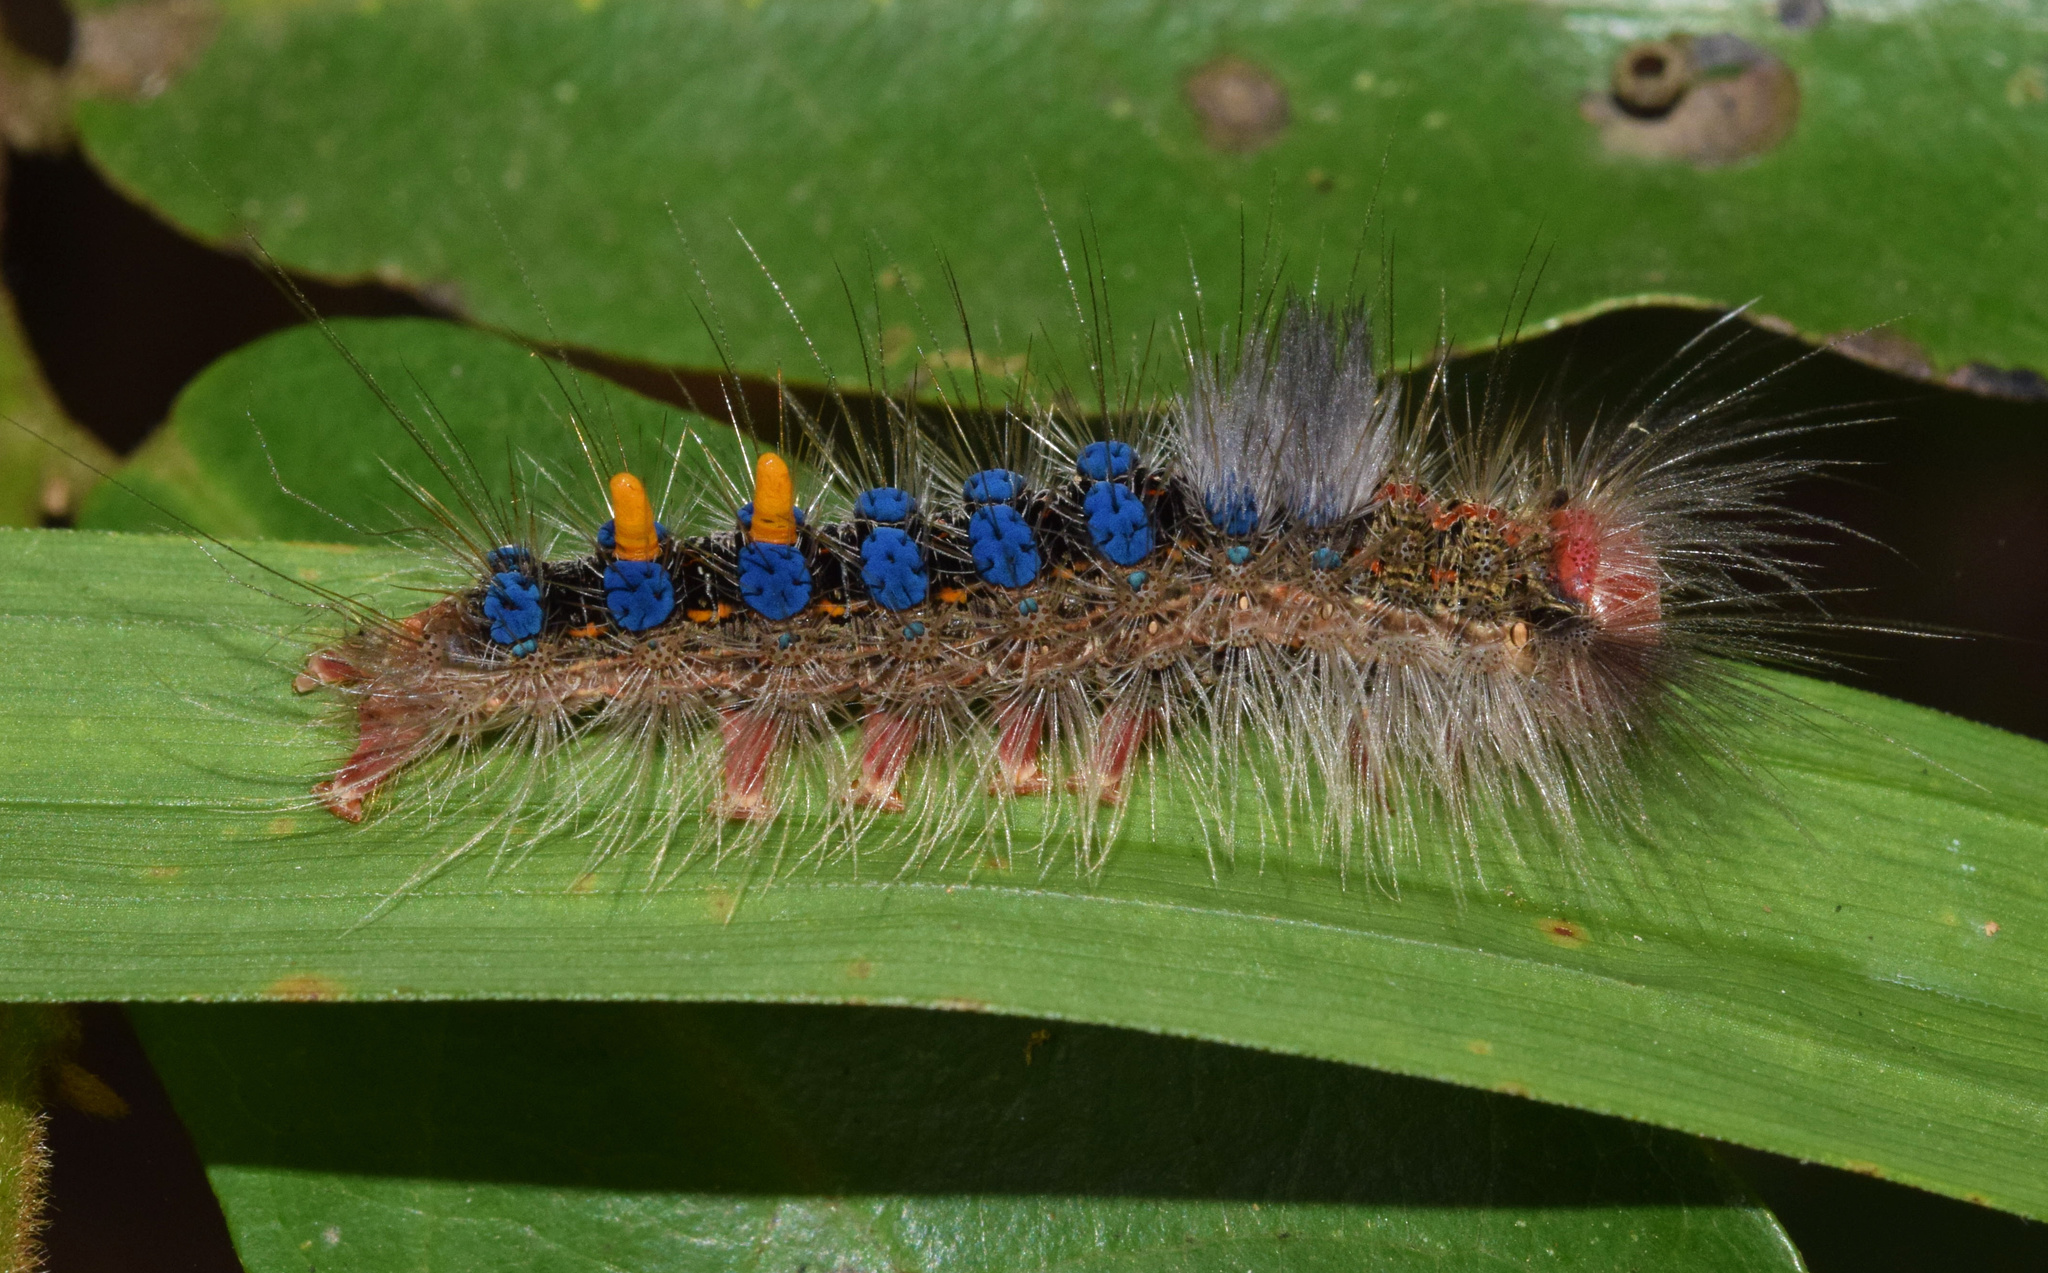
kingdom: Animalia
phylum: Arthropoda
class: Insecta
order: Lepidoptera
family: Erebidae
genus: Aroa
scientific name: Aroa difficilis
